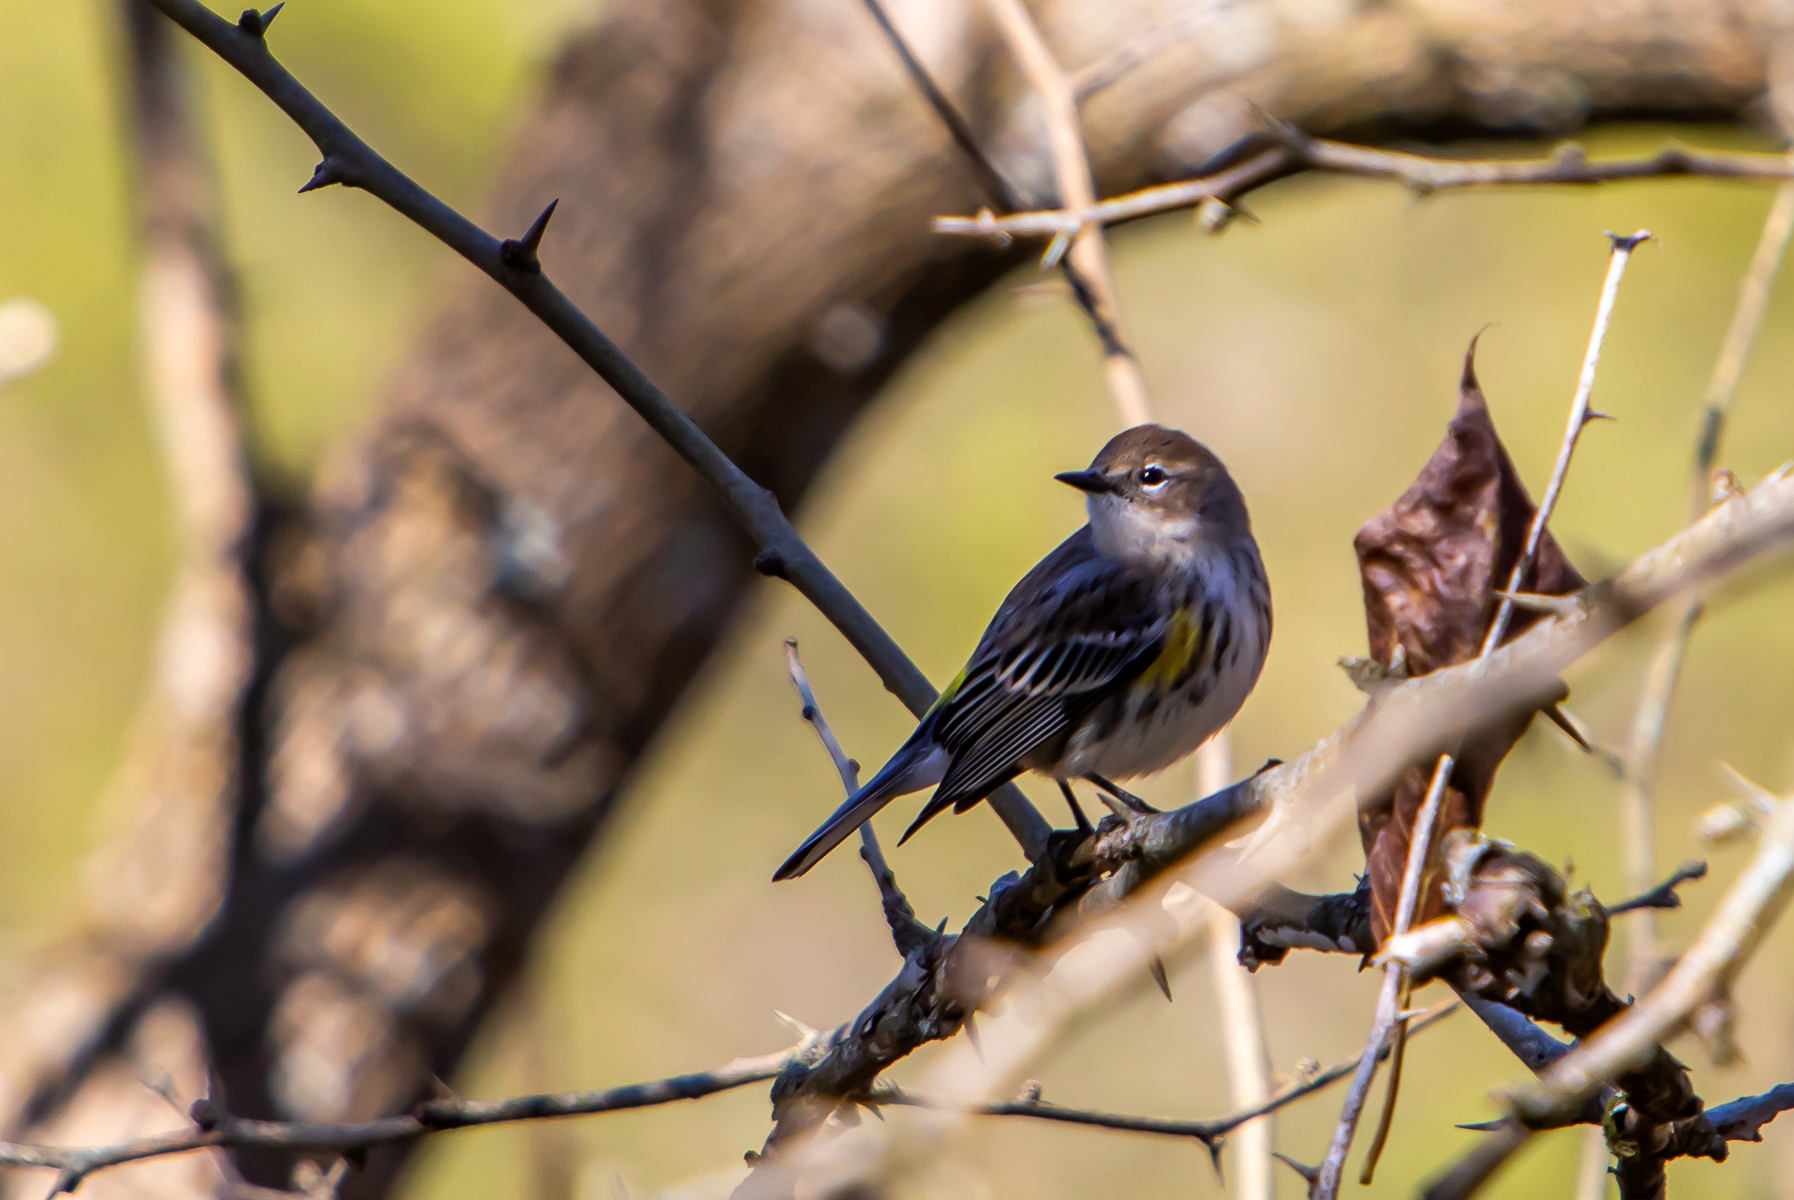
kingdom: Animalia
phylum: Chordata
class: Aves
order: Passeriformes
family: Parulidae
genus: Setophaga
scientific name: Setophaga coronata
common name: Myrtle warbler
